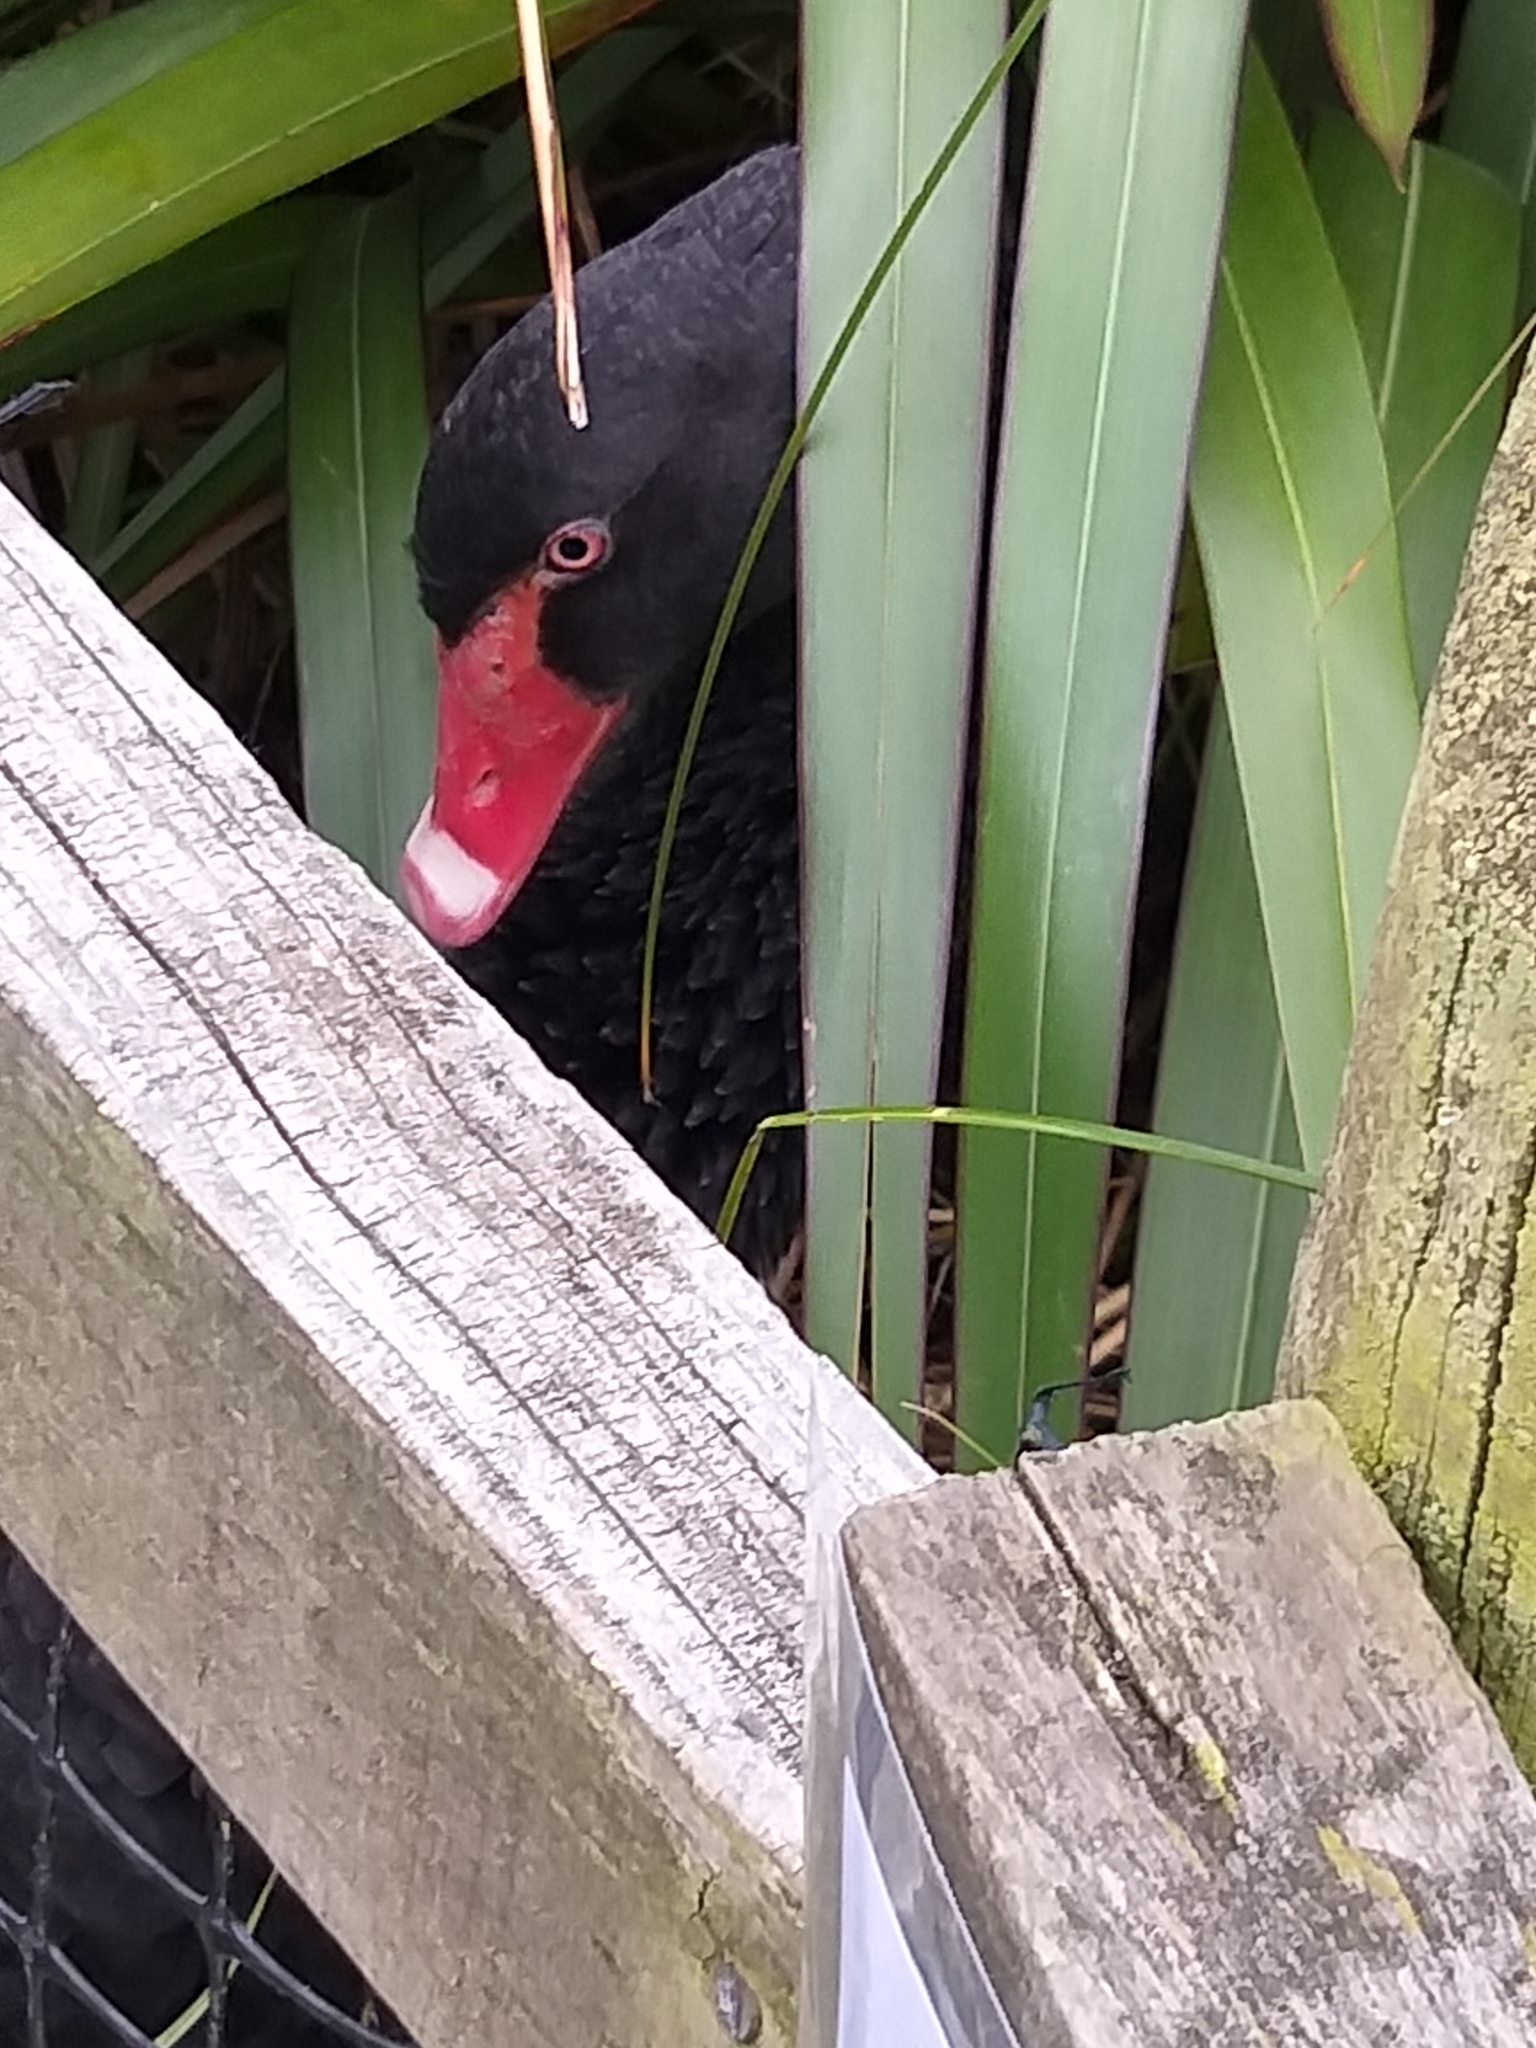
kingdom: Animalia
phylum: Chordata
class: Aves
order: Anseriformes
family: Anatidae
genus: Cygnus
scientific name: Cygnus atratus
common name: Black swan
